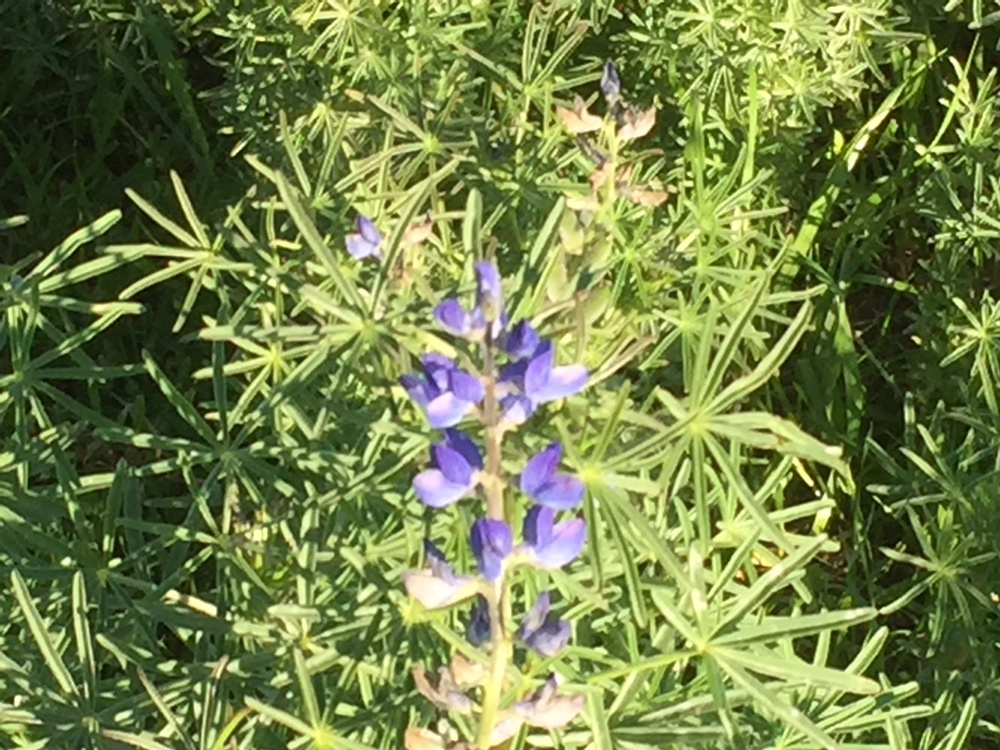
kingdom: Plantae
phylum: Tracheophyta
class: Magnoliopsida
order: Fabales
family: Fabaceae
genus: Lupinus
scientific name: Lupinus angustifolius
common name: Narrow-leaved lupin
